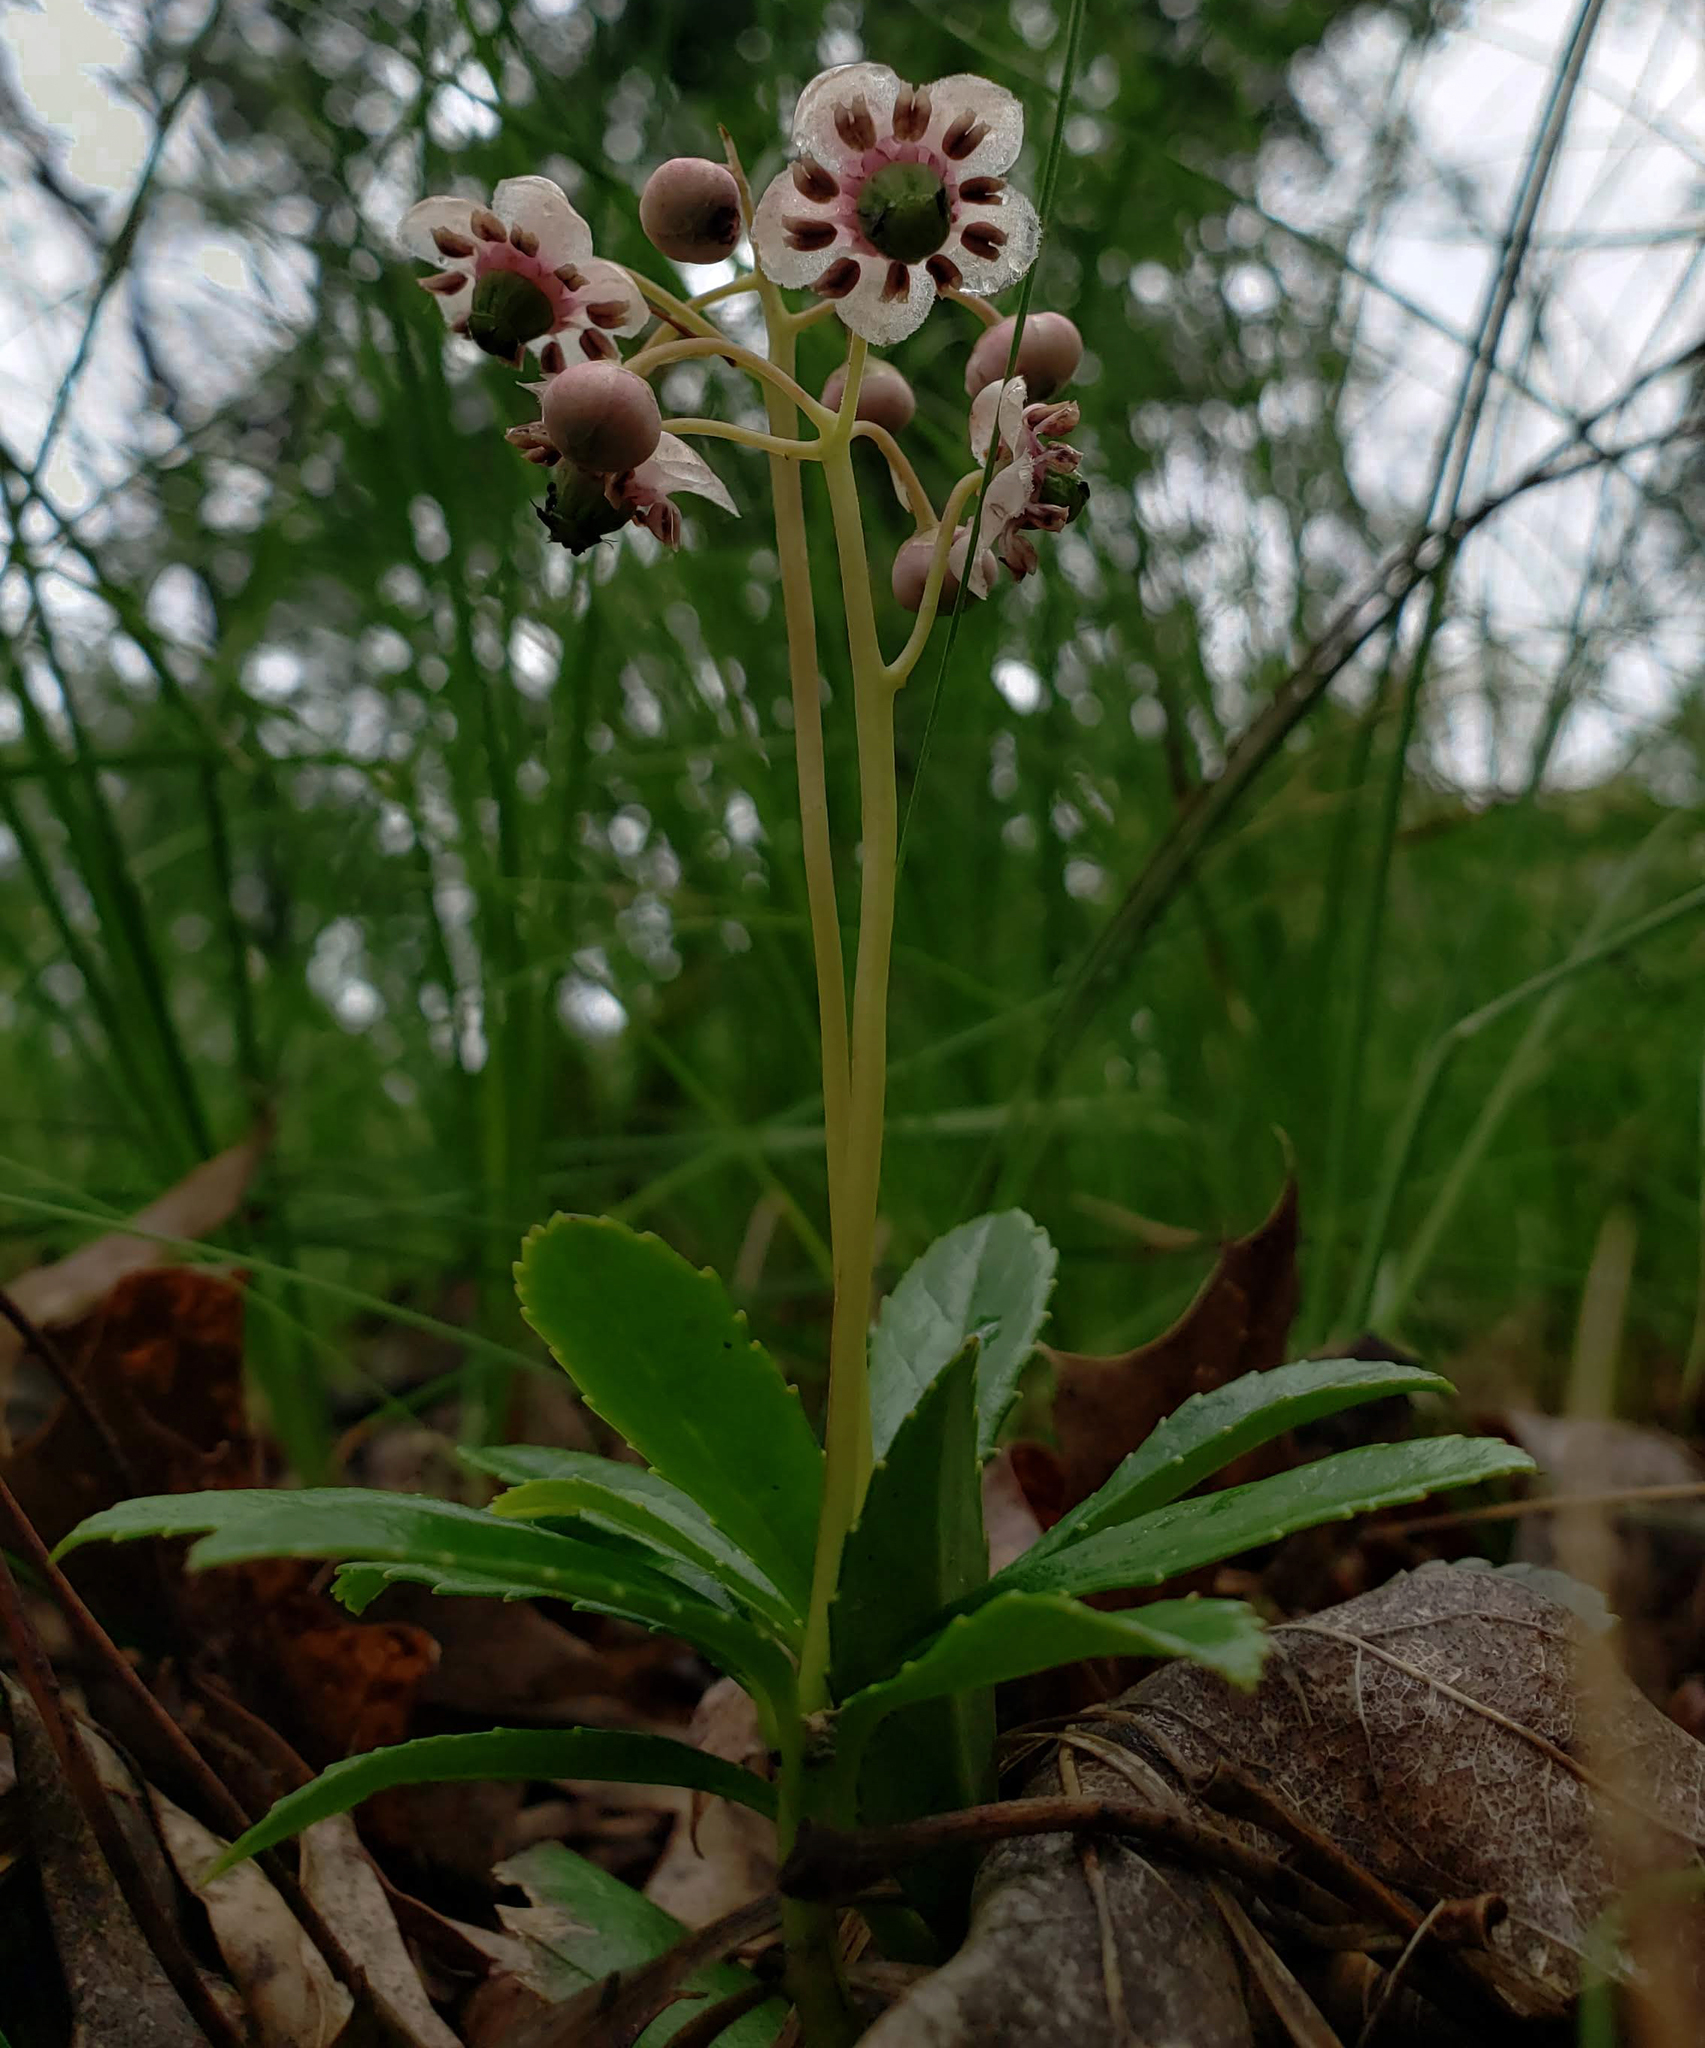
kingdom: Plantae
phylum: Tracheophyta
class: Magnoliopsida
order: Ericales
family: Ericaceae
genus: Chimaphila
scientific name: Chimaphila umbellata
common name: Pipsissewa
